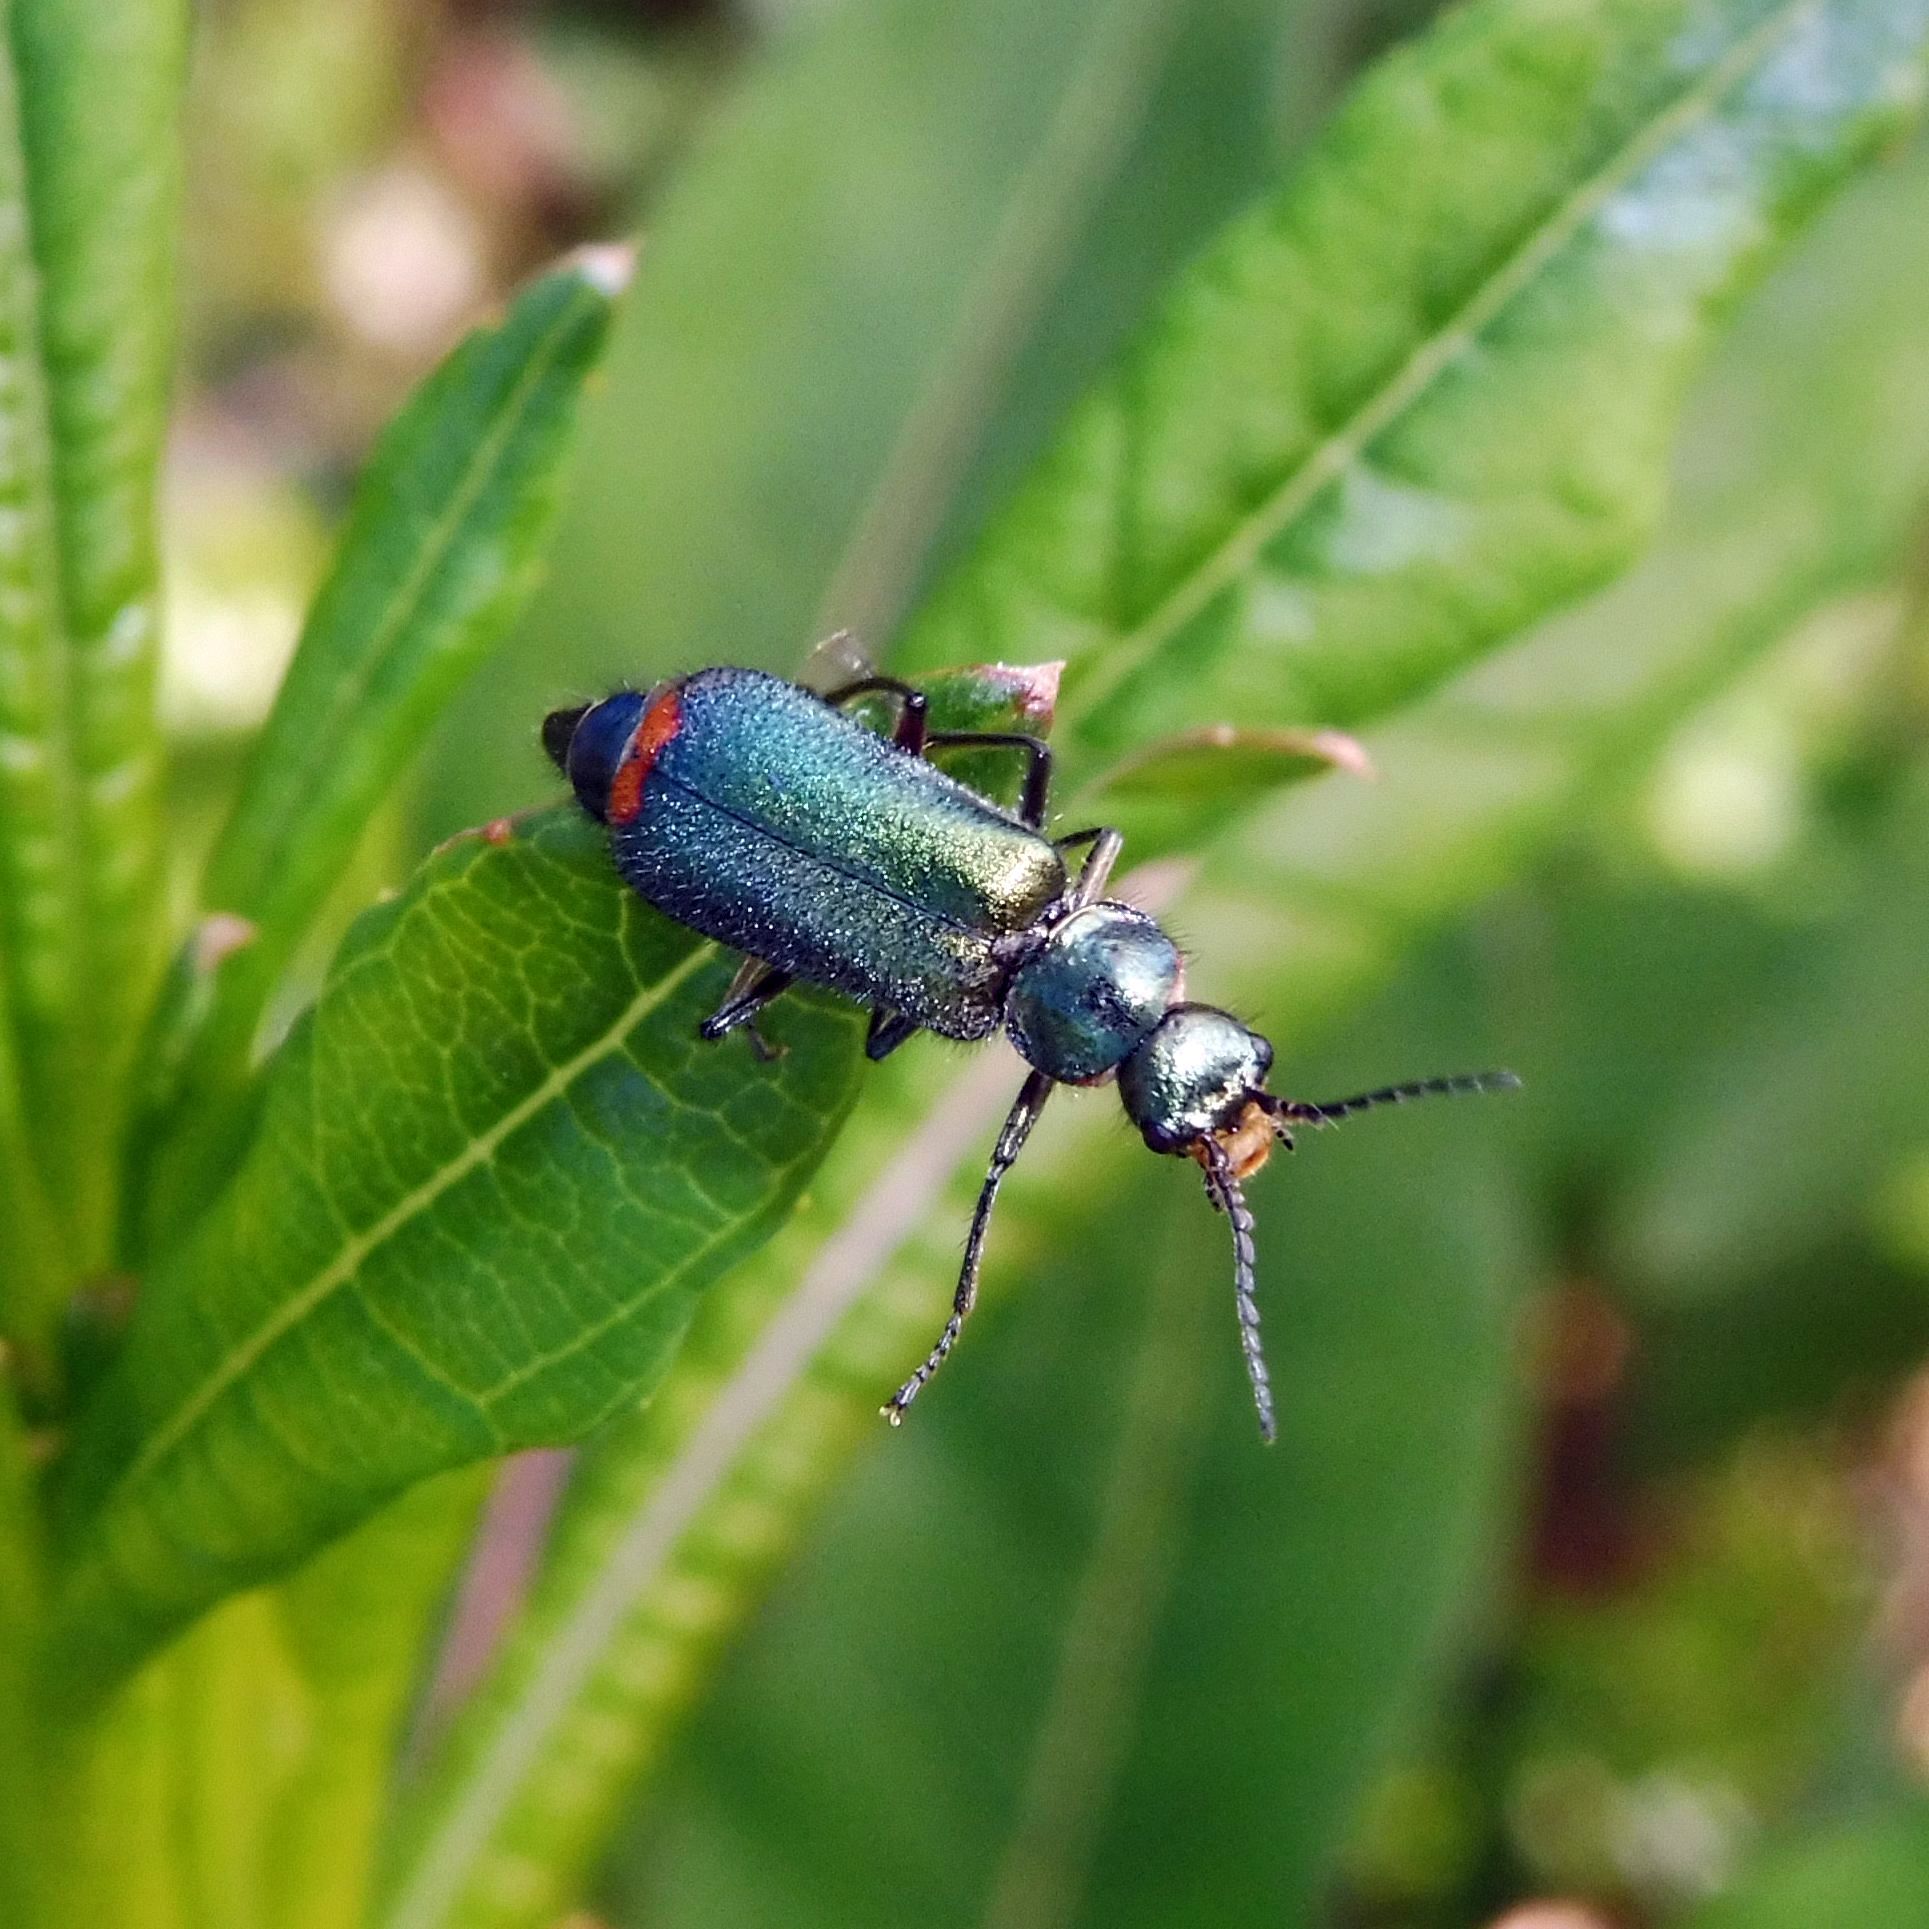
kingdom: Animalia
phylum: Arthropoda
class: Insecta
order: Coleoptera
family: Melyridae
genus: Malachius
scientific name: Malachius bipustulatus
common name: Malachite beetle
